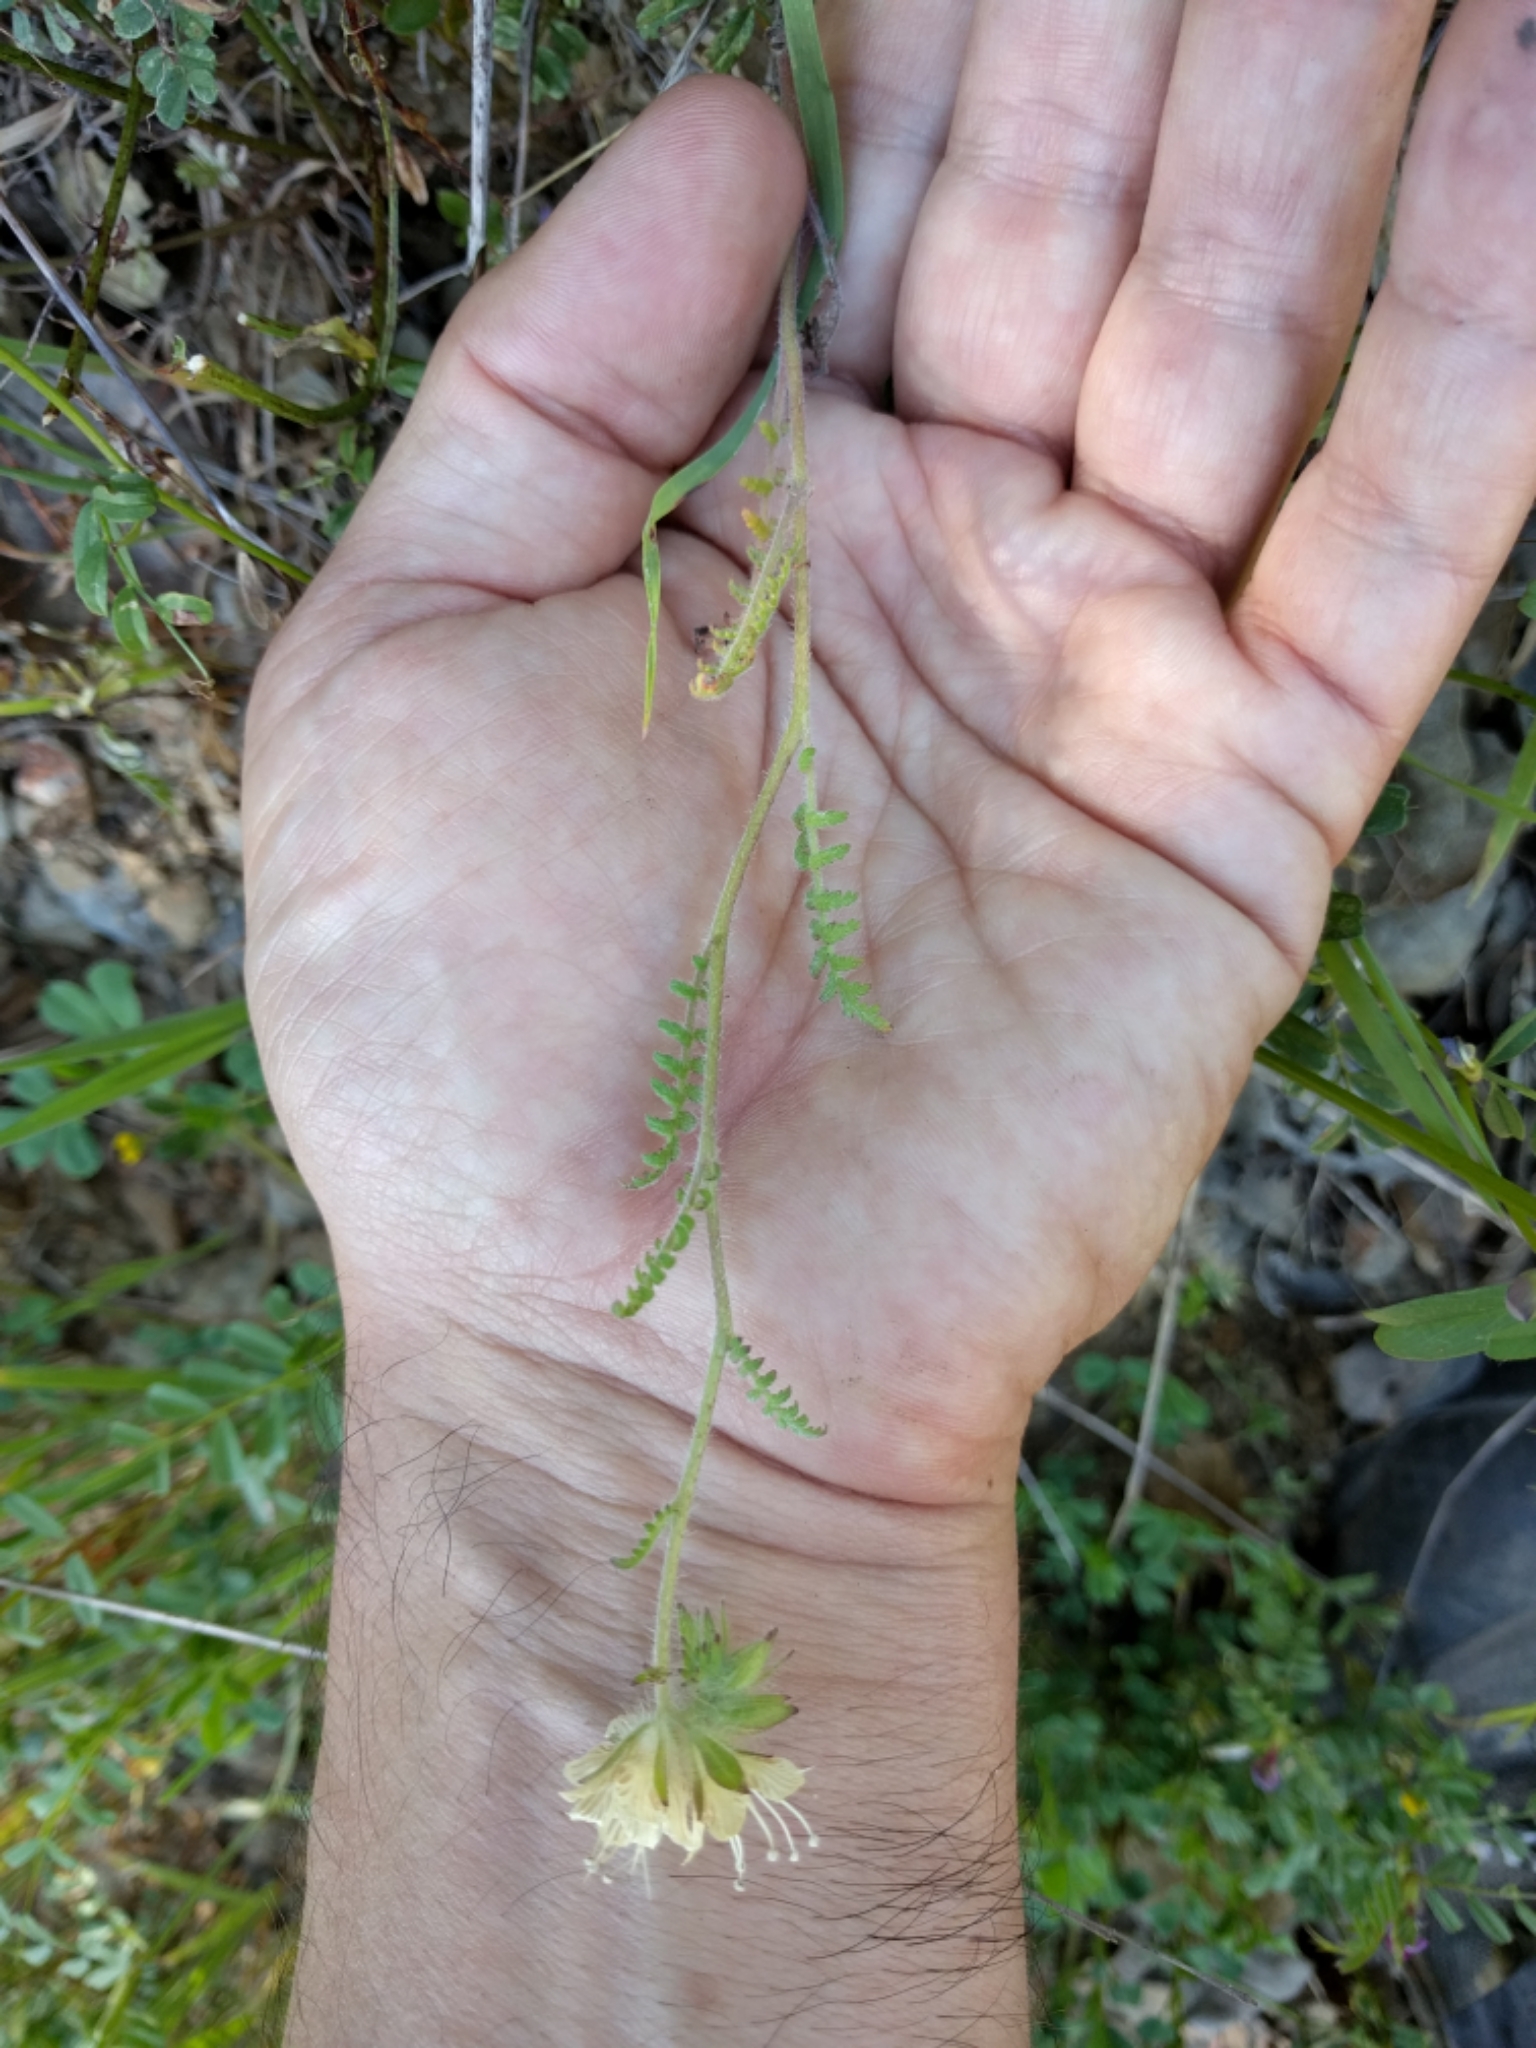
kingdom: Plantae
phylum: Tracheophyta
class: Magnoliopsida
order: Boraginales
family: Hydrophyllaceae
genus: Phacelia
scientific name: Phacelia distans
